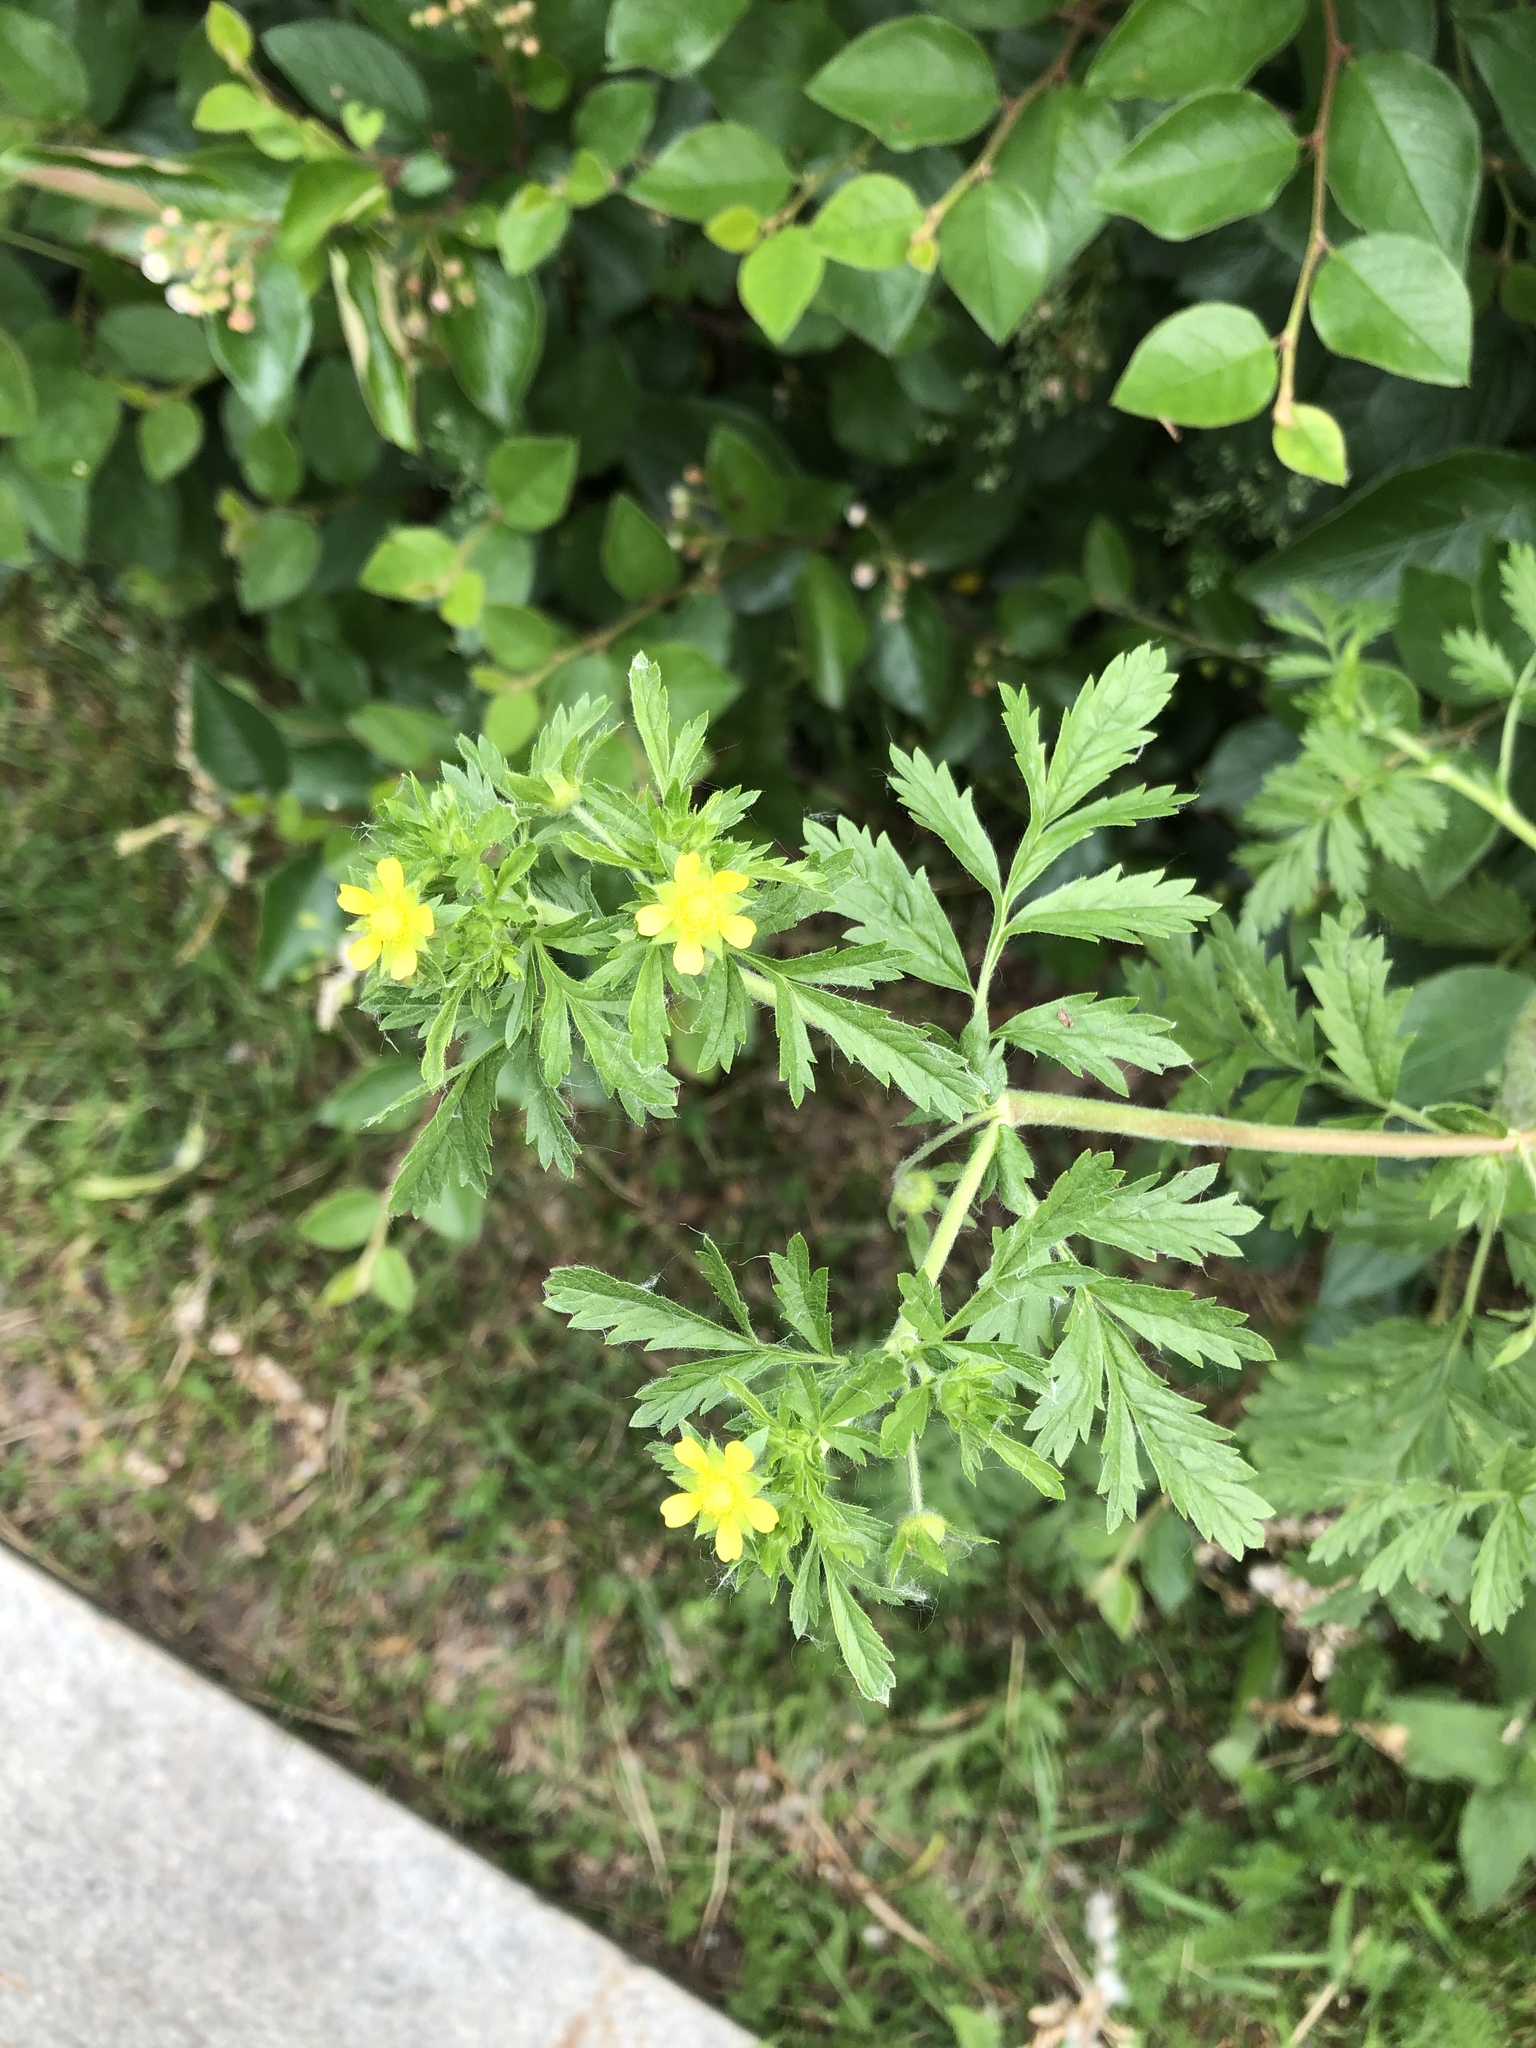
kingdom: Plantae
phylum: Tracheophyta
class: Magnoliopsida
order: Rosales
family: Rosaceae
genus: Potentilla
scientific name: Potentilla supina
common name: Prostrate cinquefoil
